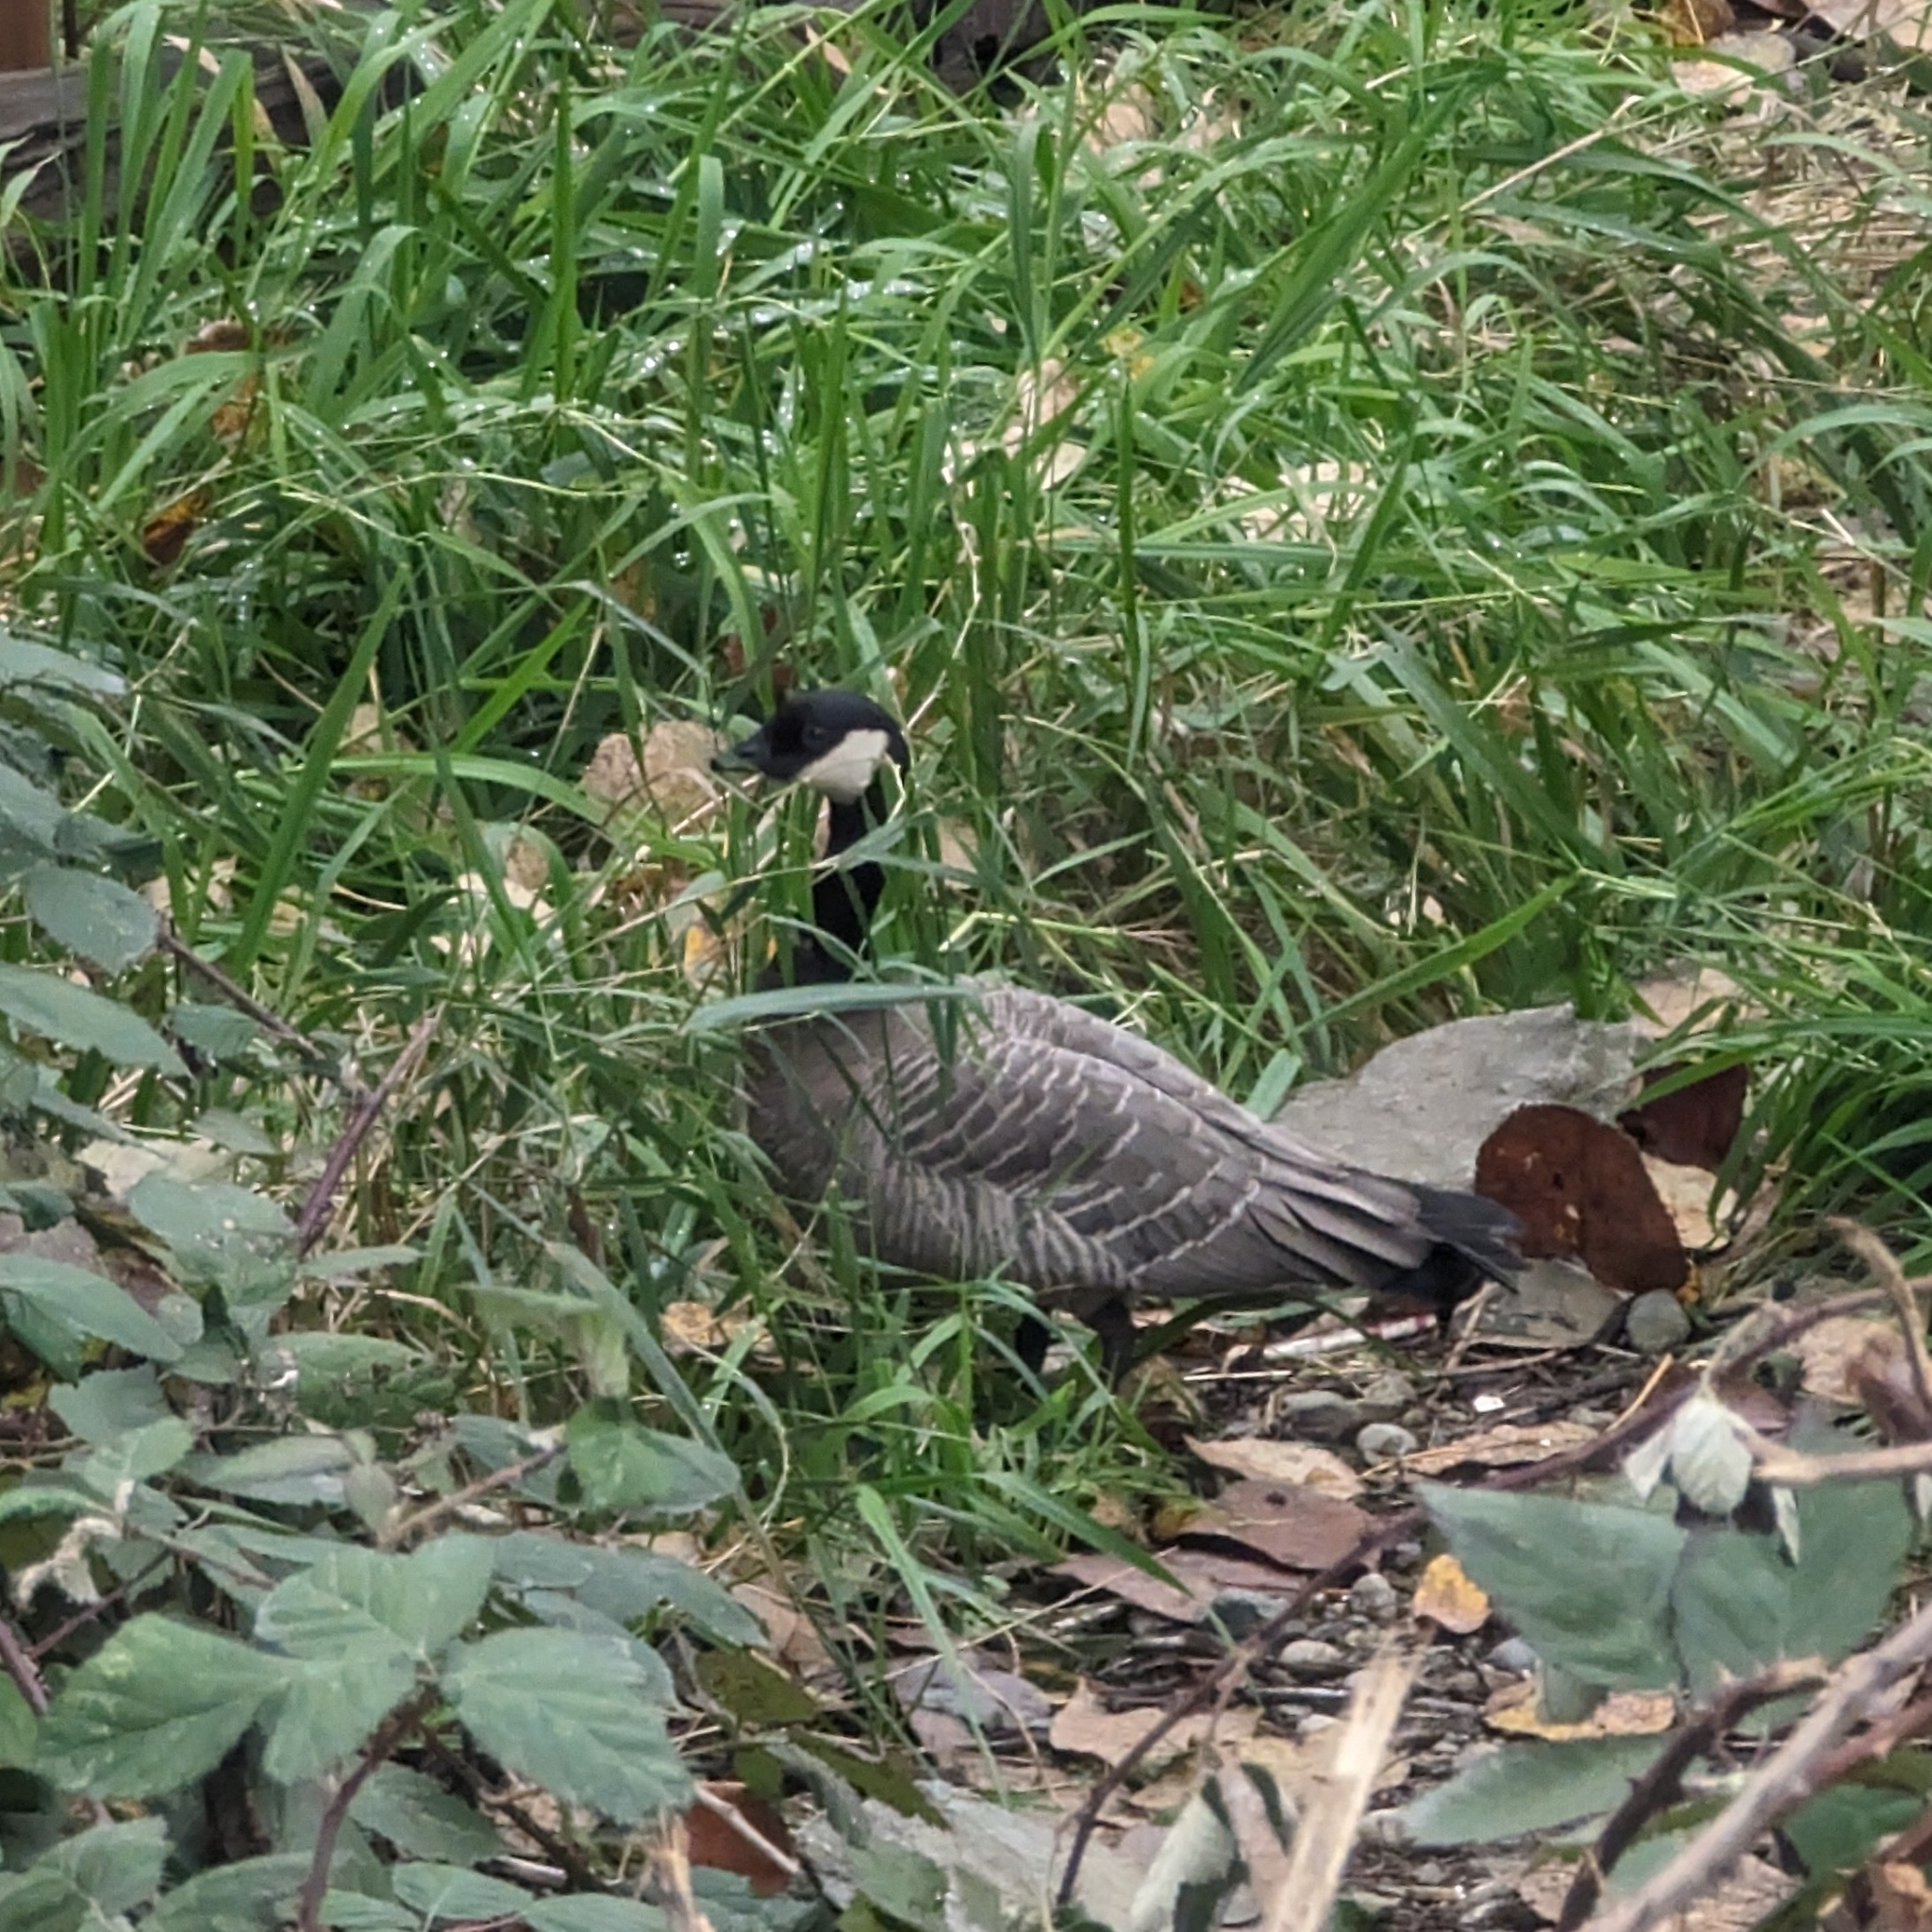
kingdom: Animalia
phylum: Chordata
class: Aves
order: Anseriformes
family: Anatidae
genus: Branta
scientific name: Branta hutchinsii
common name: Cackling goose
